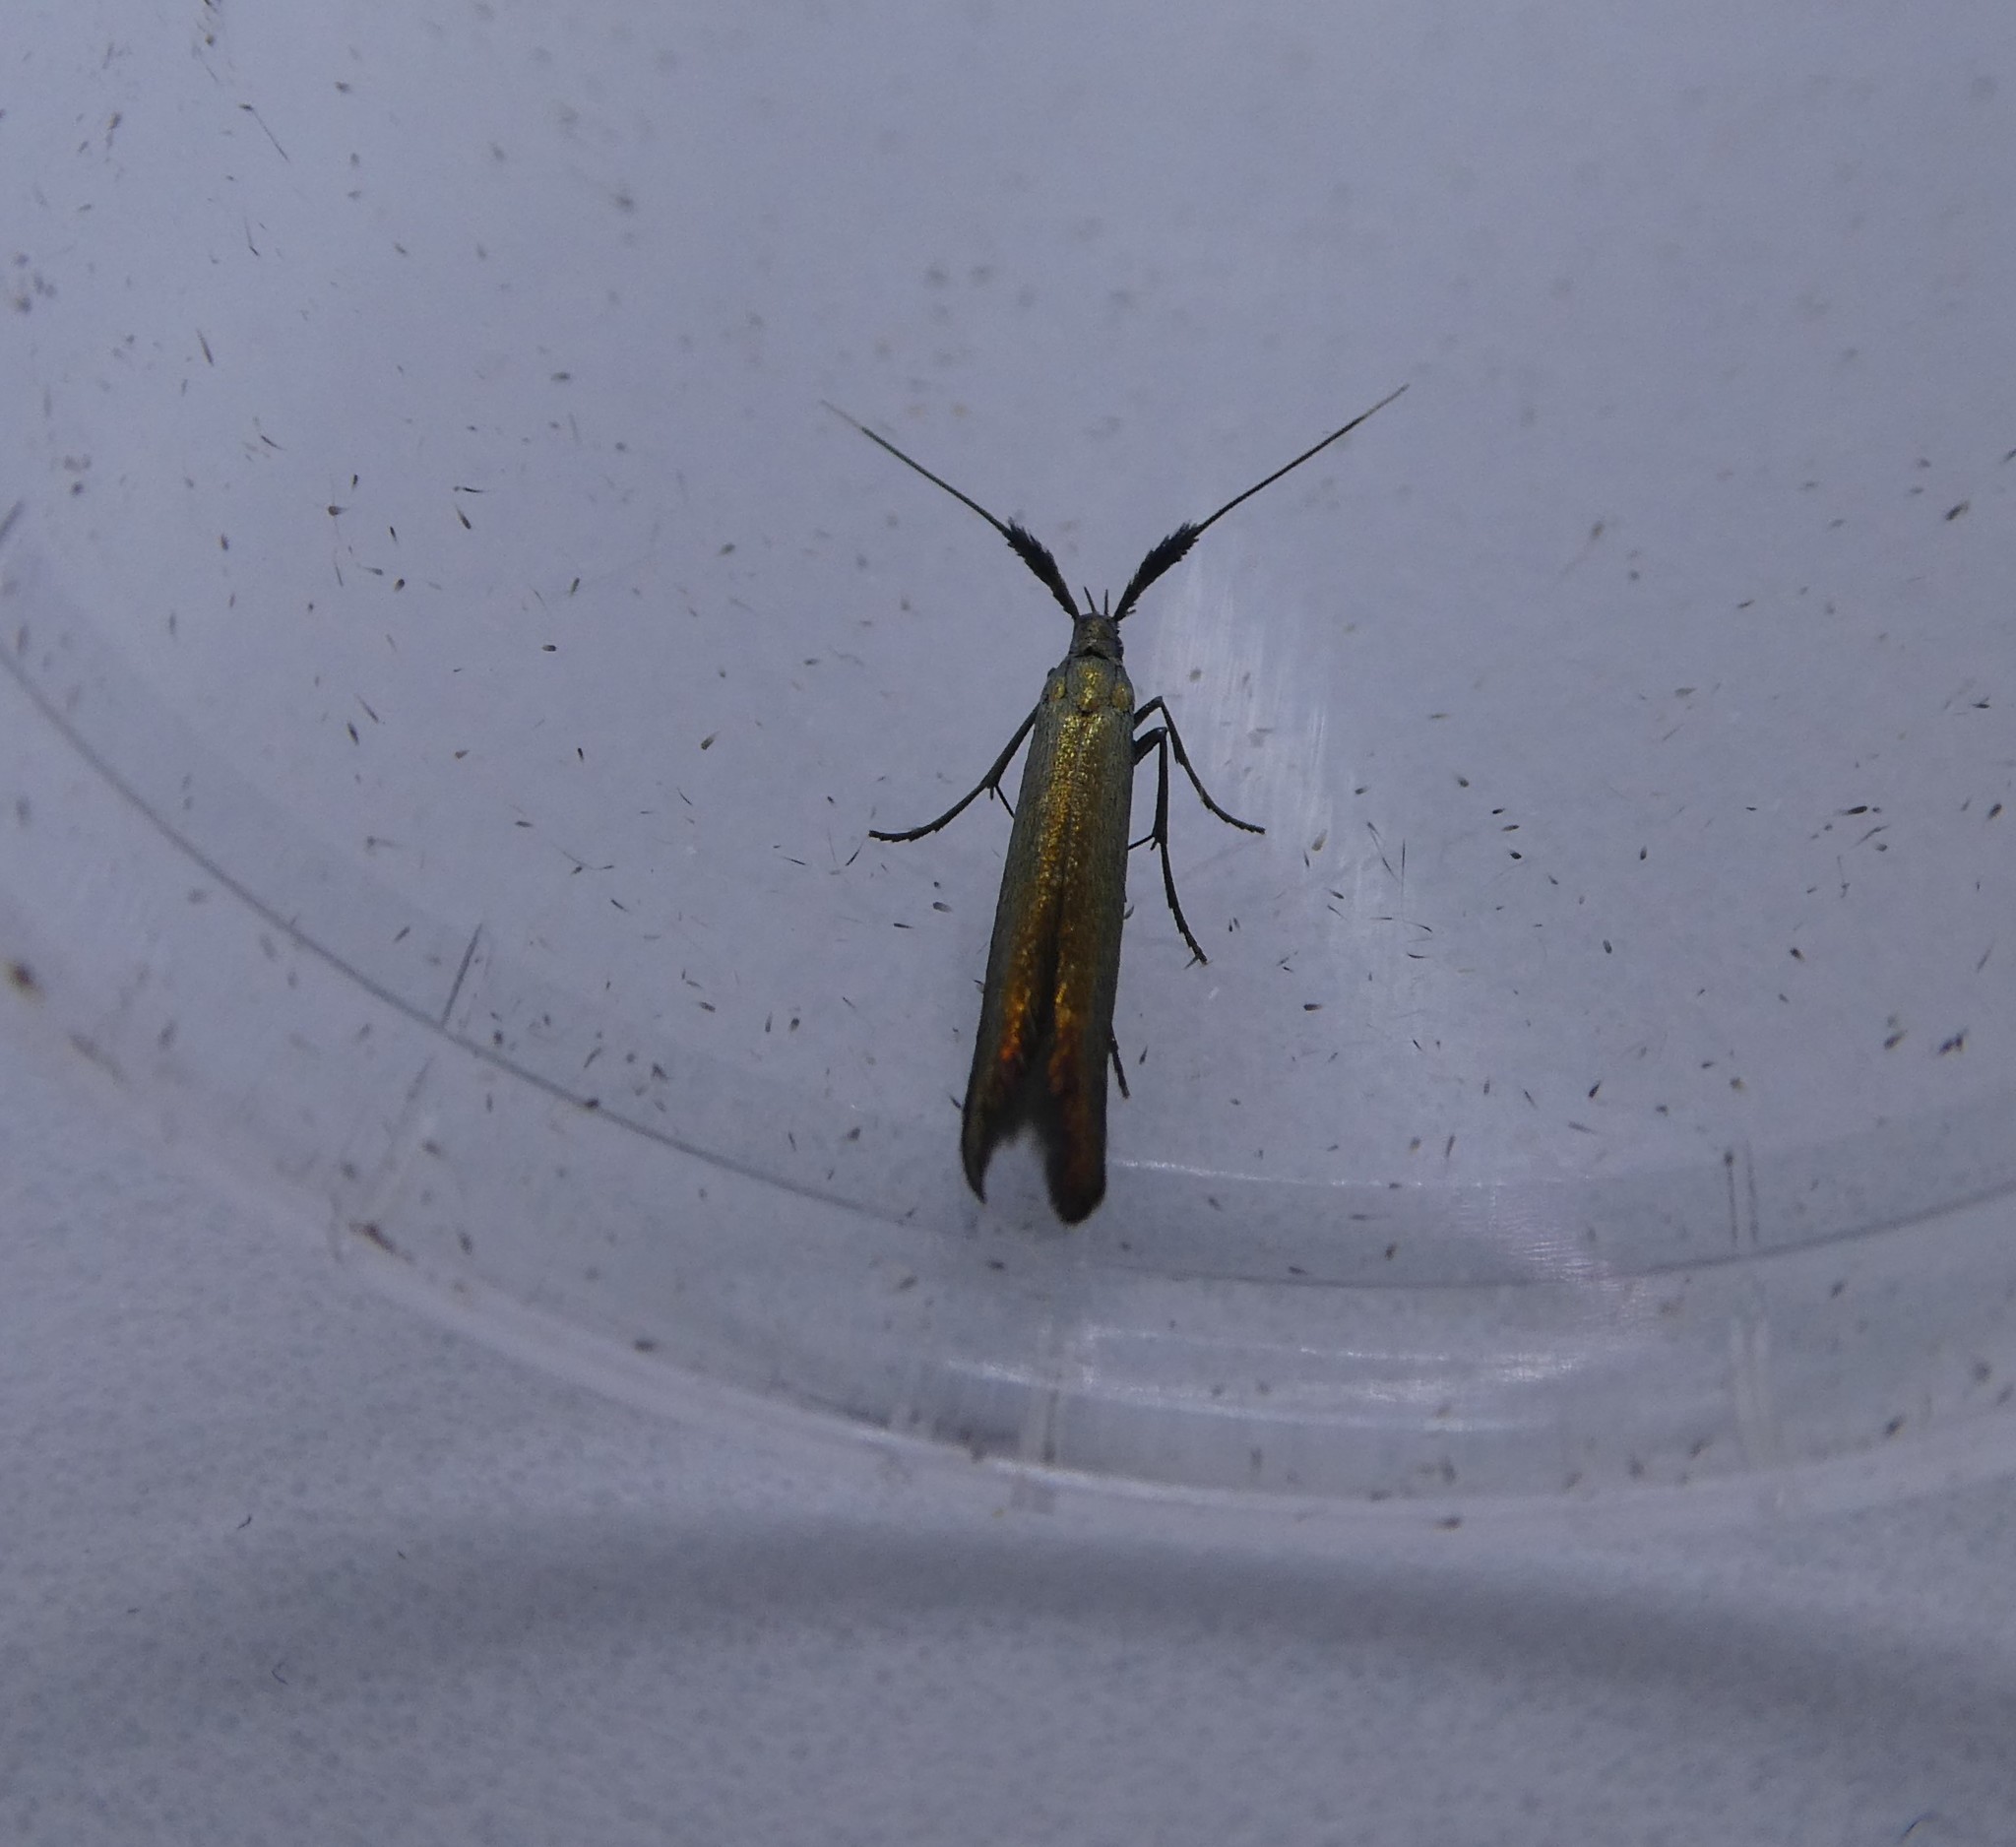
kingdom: Animalia
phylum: Arthropoda
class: Insecta
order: Lepidoptera
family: Coleophoridae
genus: Coleophora
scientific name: Coleophora deauratella
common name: Red-clover case-bearer
